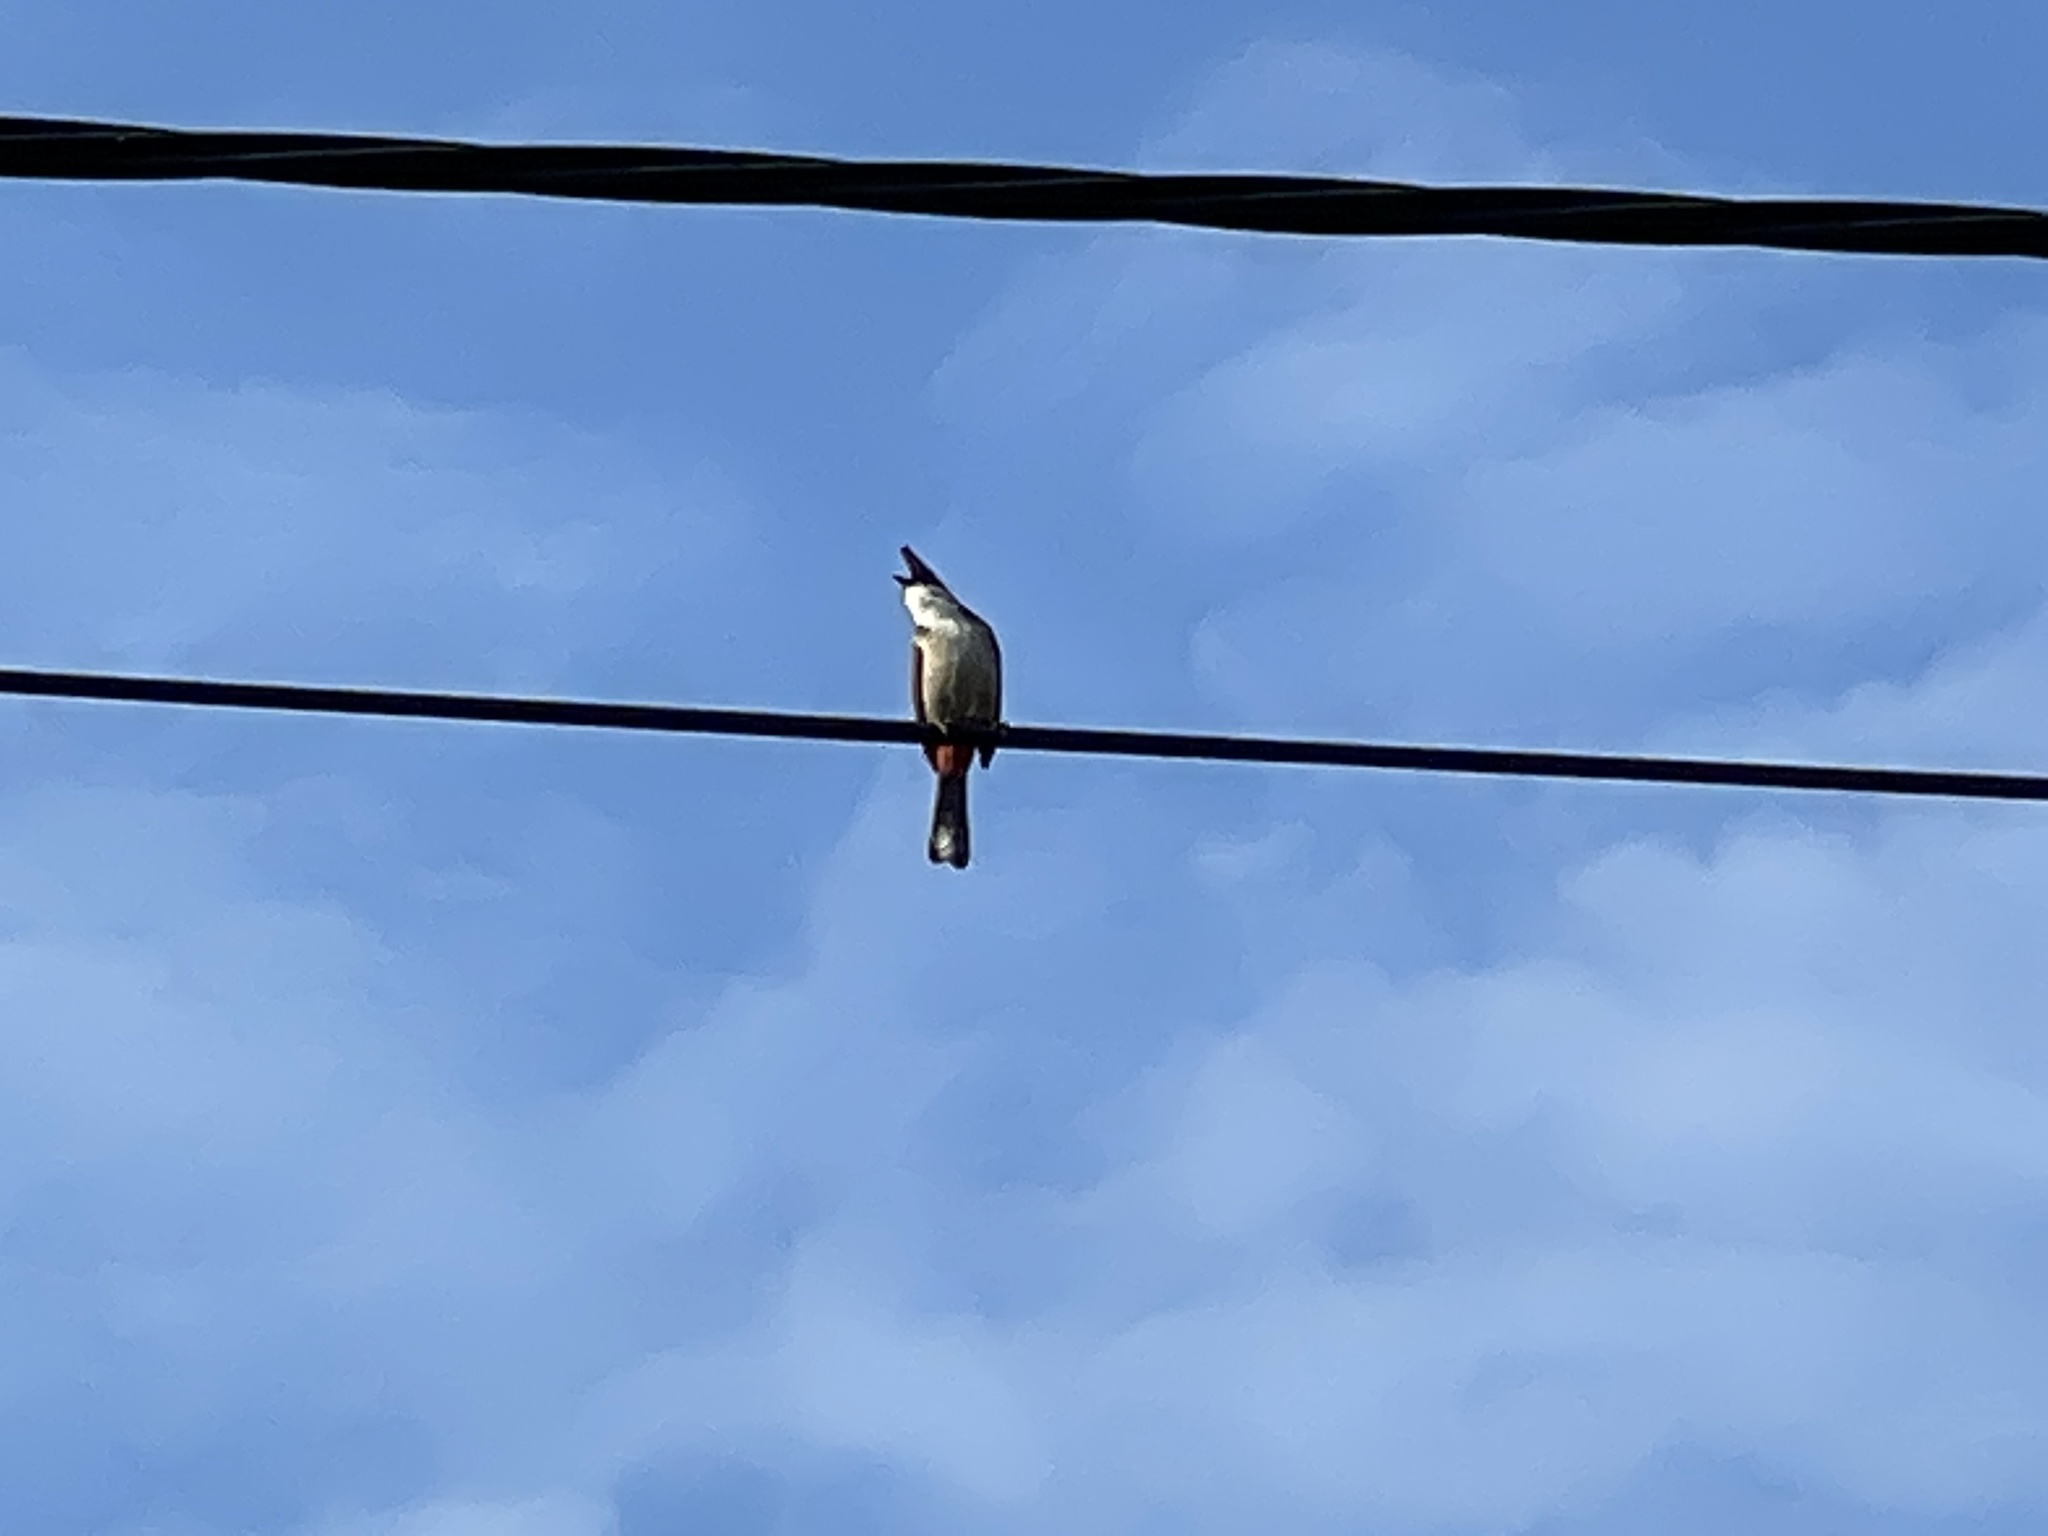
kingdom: Animalia
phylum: Chordata
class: Aves
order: Passeriformes
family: Pycnonotidae
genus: Pycnonotus
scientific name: Pycnonotus jocosus
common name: Red-whiskered bulbul
